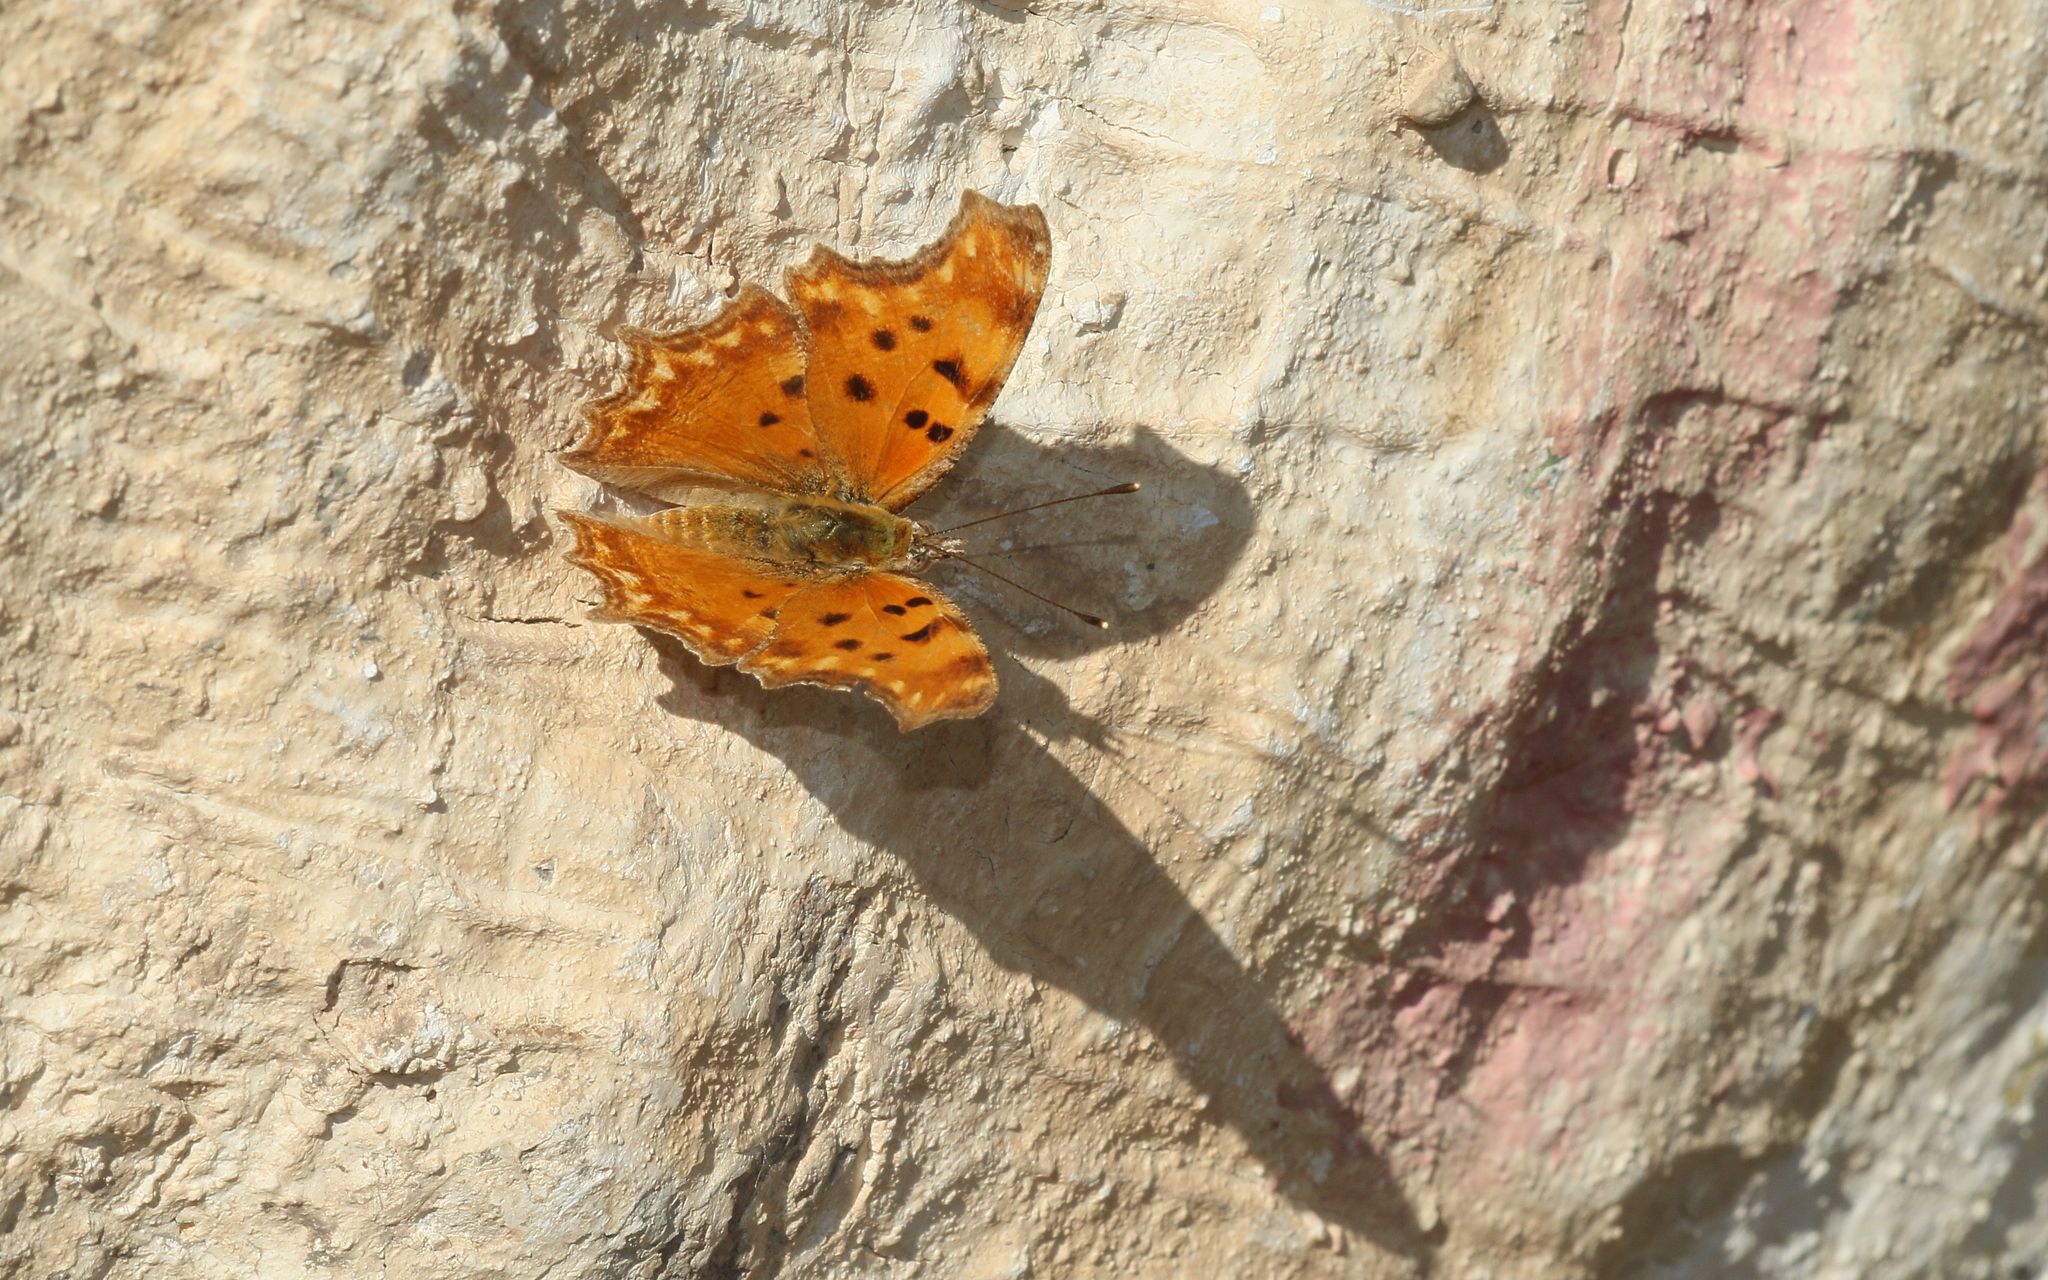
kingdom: Animalia
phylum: Arthropoda
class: Insecta
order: Lepidoptera
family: Nymphalidae
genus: Polygonia
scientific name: Polygonia egea
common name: Southern comma
